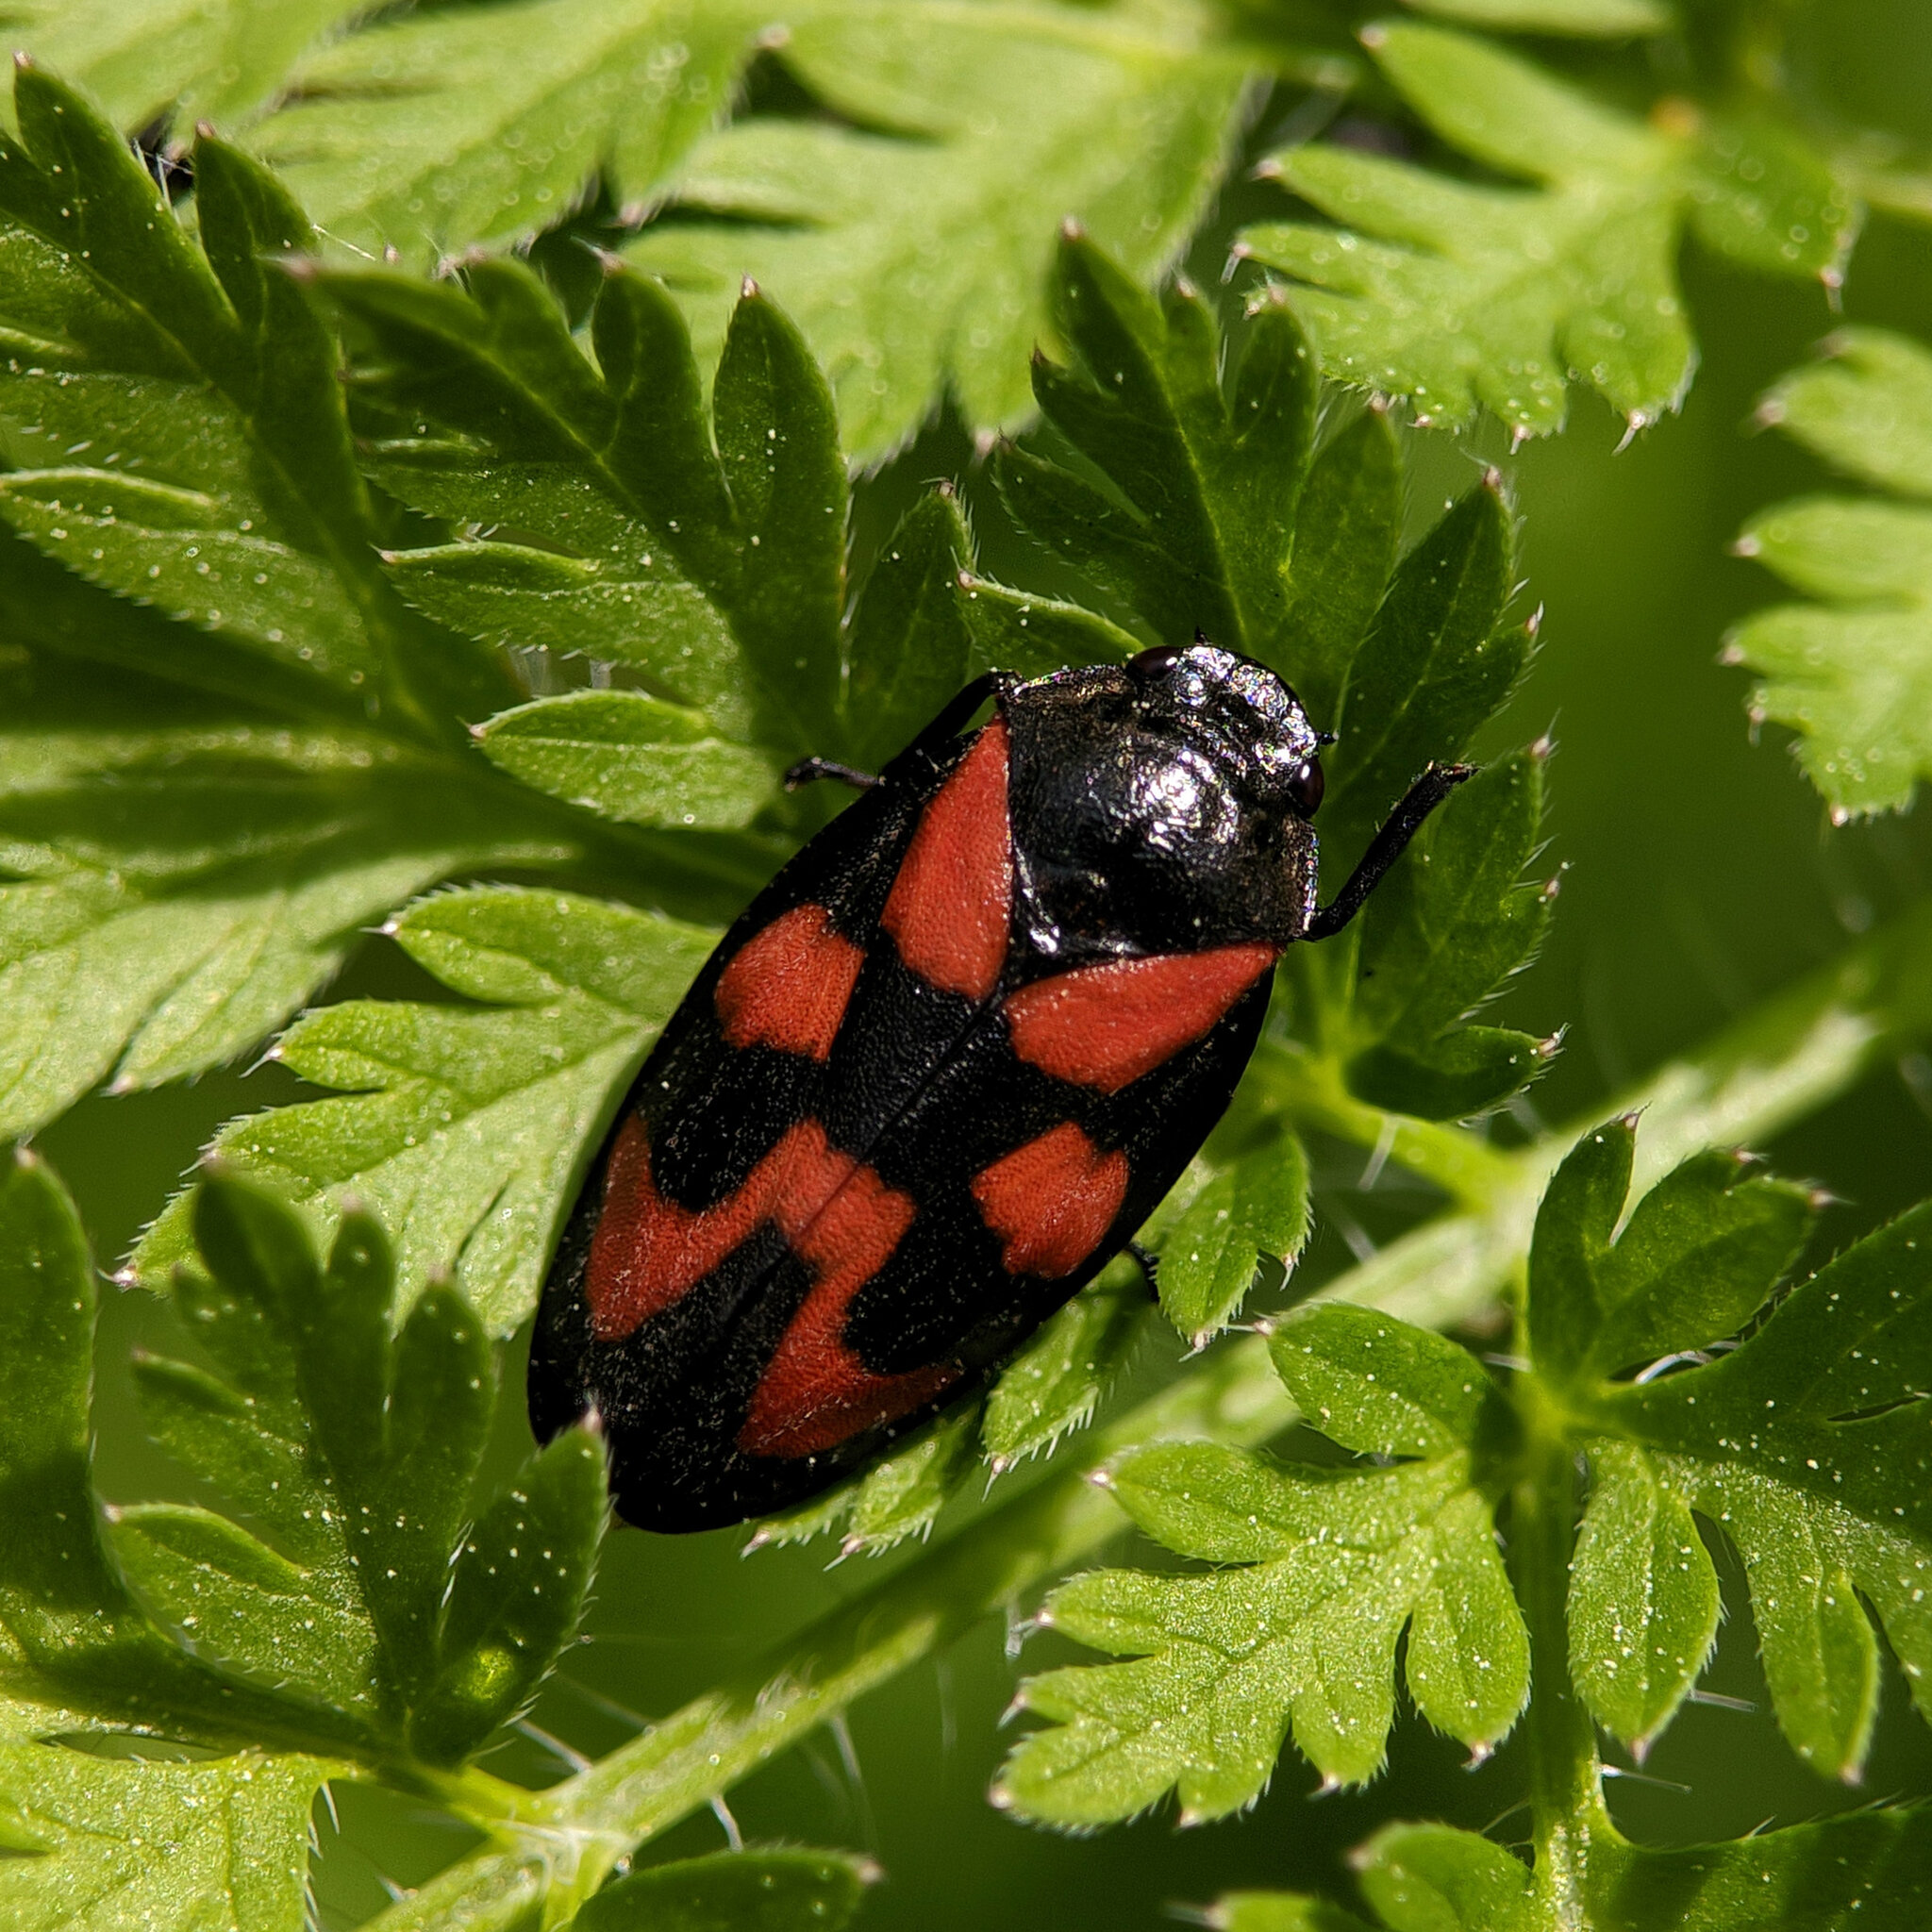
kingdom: Animalia
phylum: Arthropoda
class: Insecta
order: Hemiptera
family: Cercopidae
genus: Cercopis
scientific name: Cercopis vulnerata
